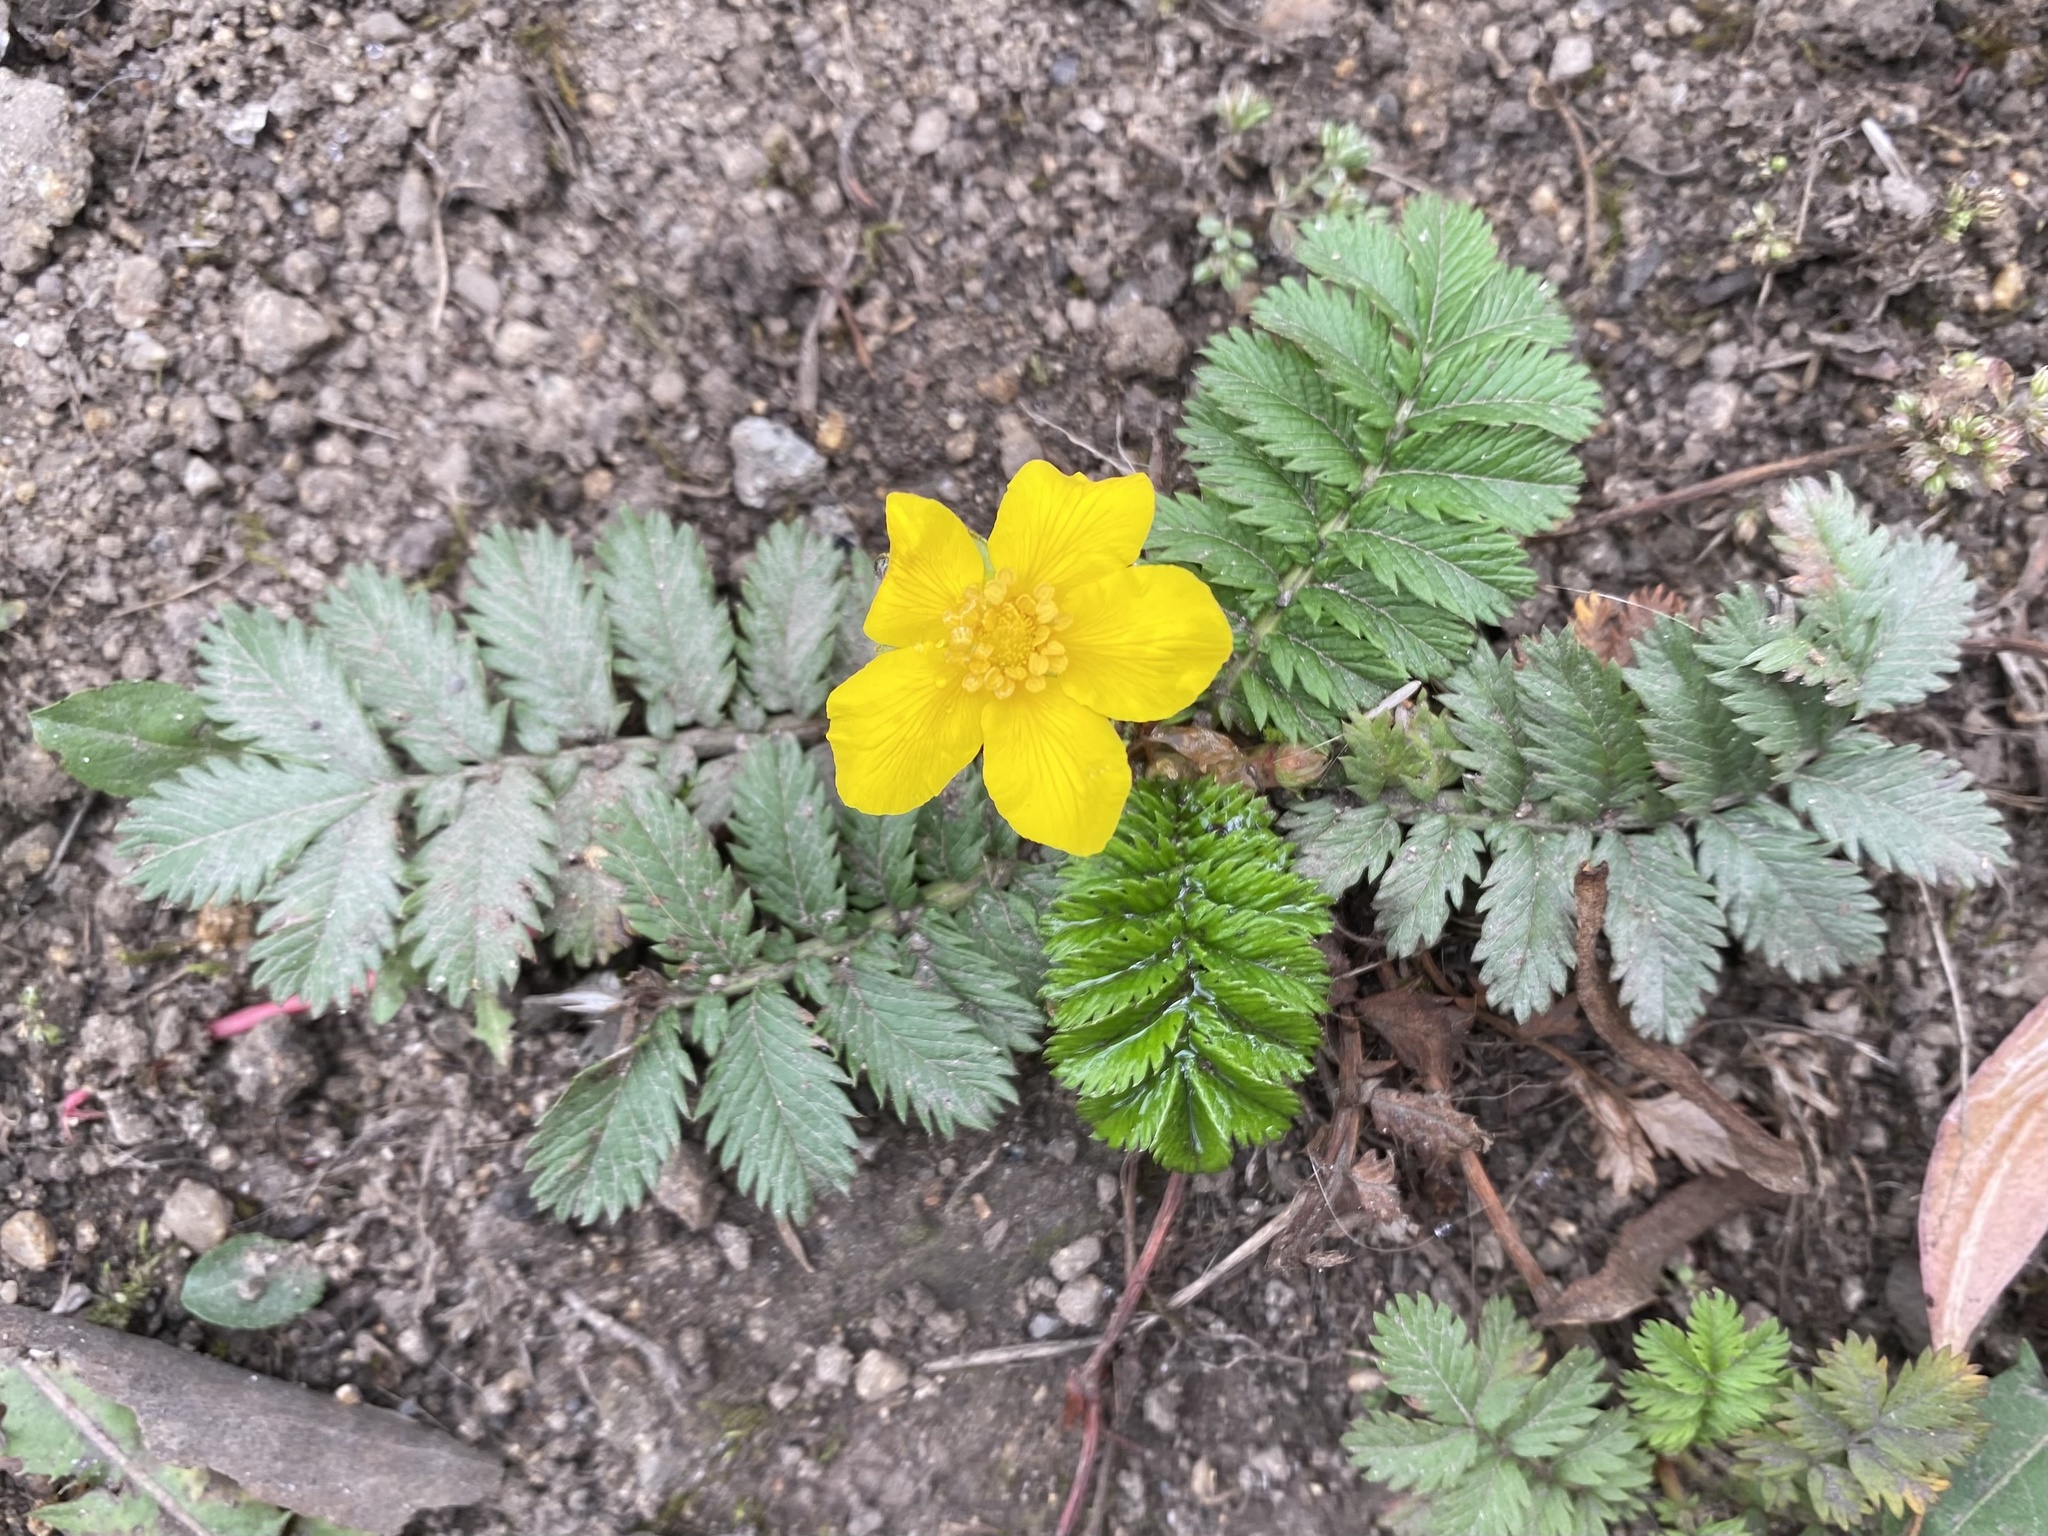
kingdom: Plantae
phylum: Tracheophyta
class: Magnoliopsida
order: Rosales
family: Rosaceae
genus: Argentina
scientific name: Argentina anserina
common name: Common silverweed
